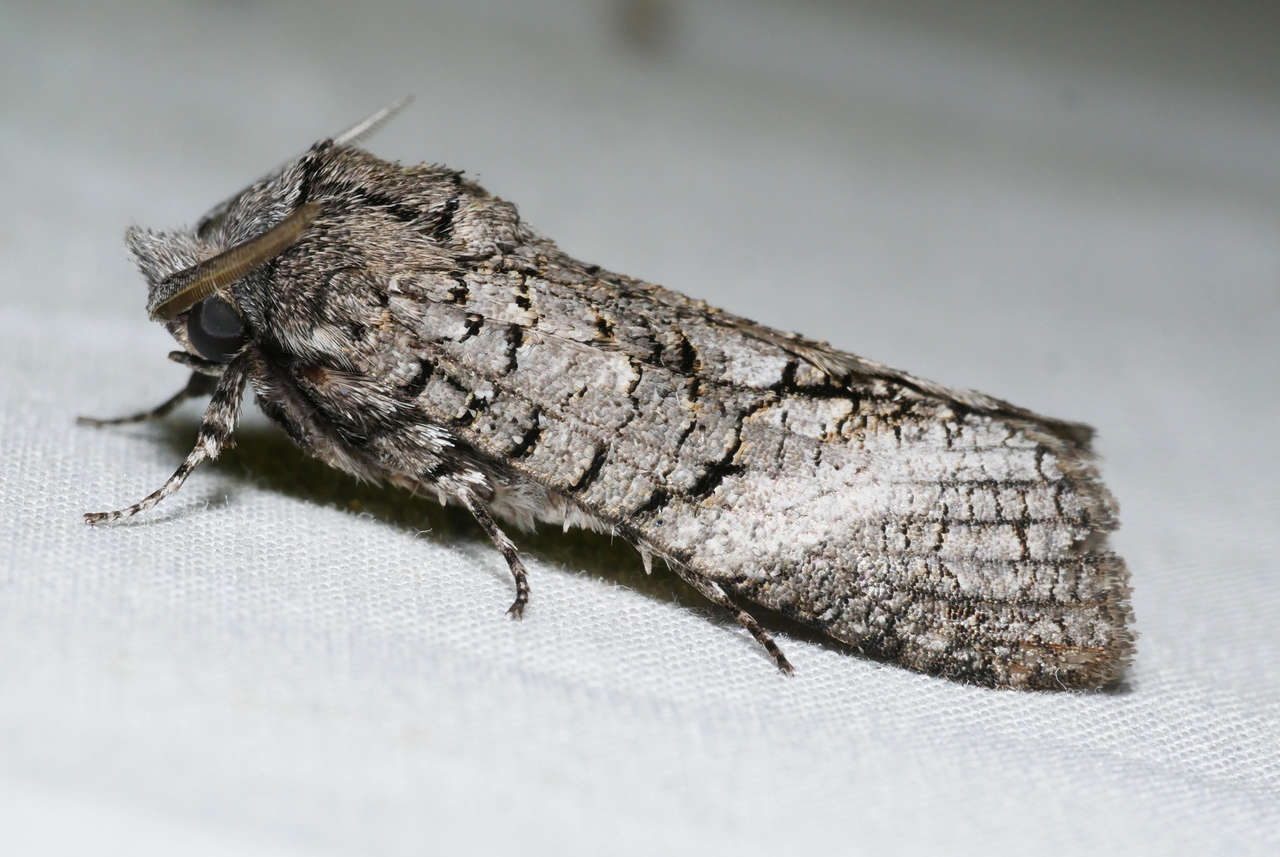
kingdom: Animalia
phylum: Arthropoda
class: Insecta
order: Lepidoptera
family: Cossidae
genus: Culama
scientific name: Culama australis
